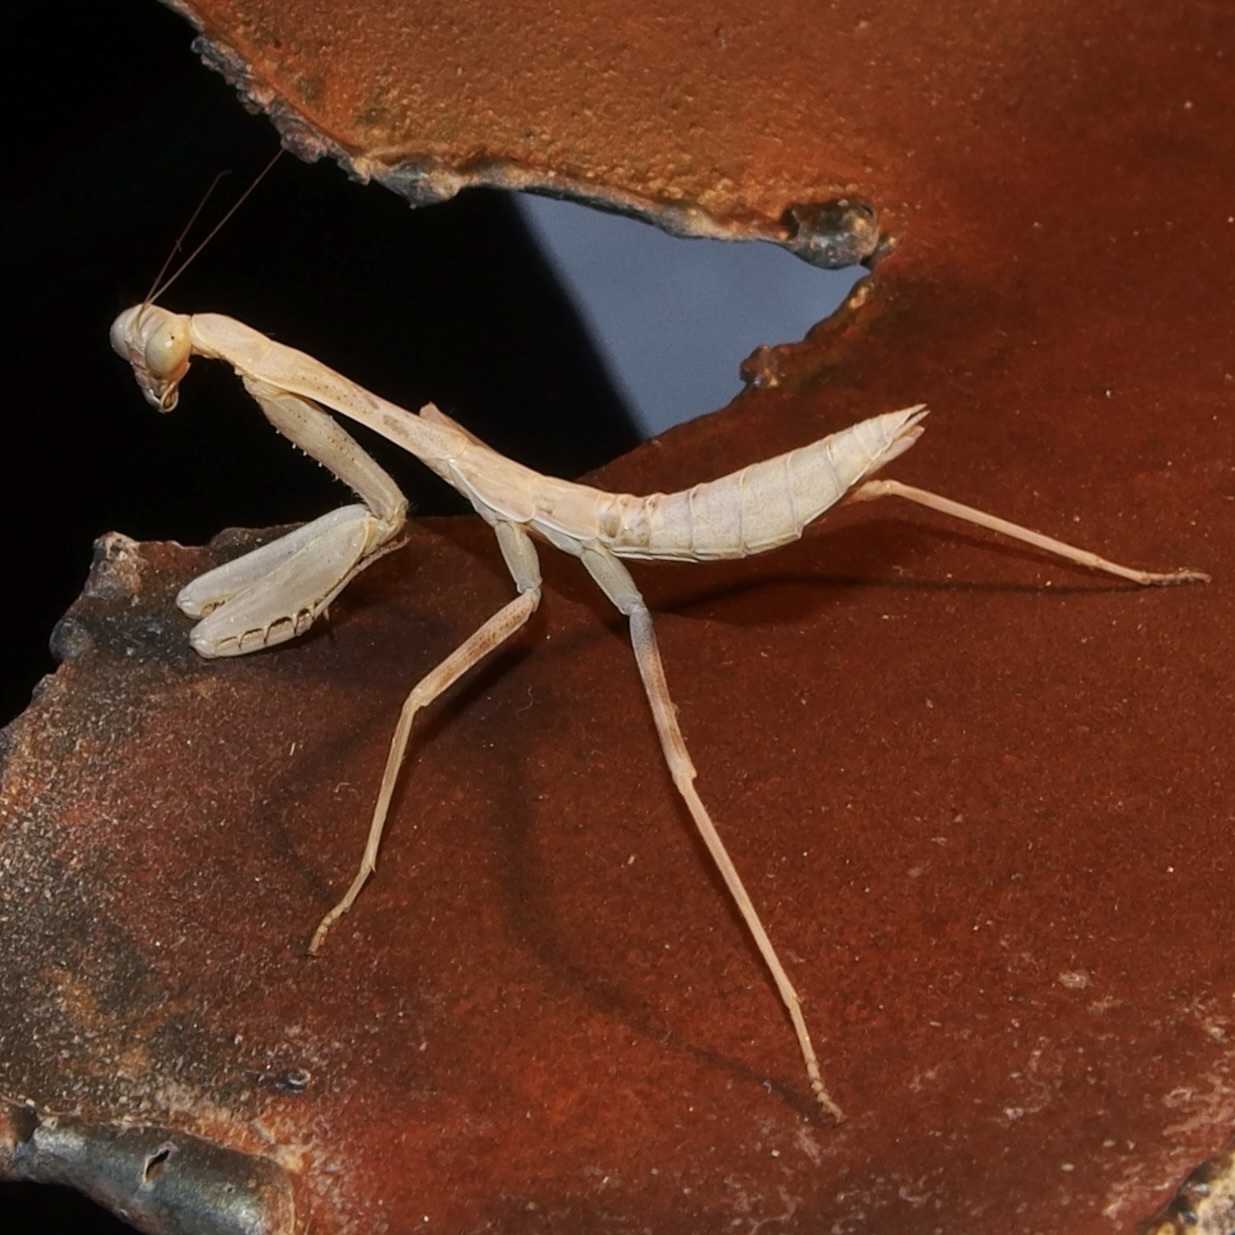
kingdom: Animalia
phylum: Arthropoda
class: Insecta
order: Mantodea
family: Mantidae
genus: Stagmomantis
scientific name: Stagmomantis limbata
